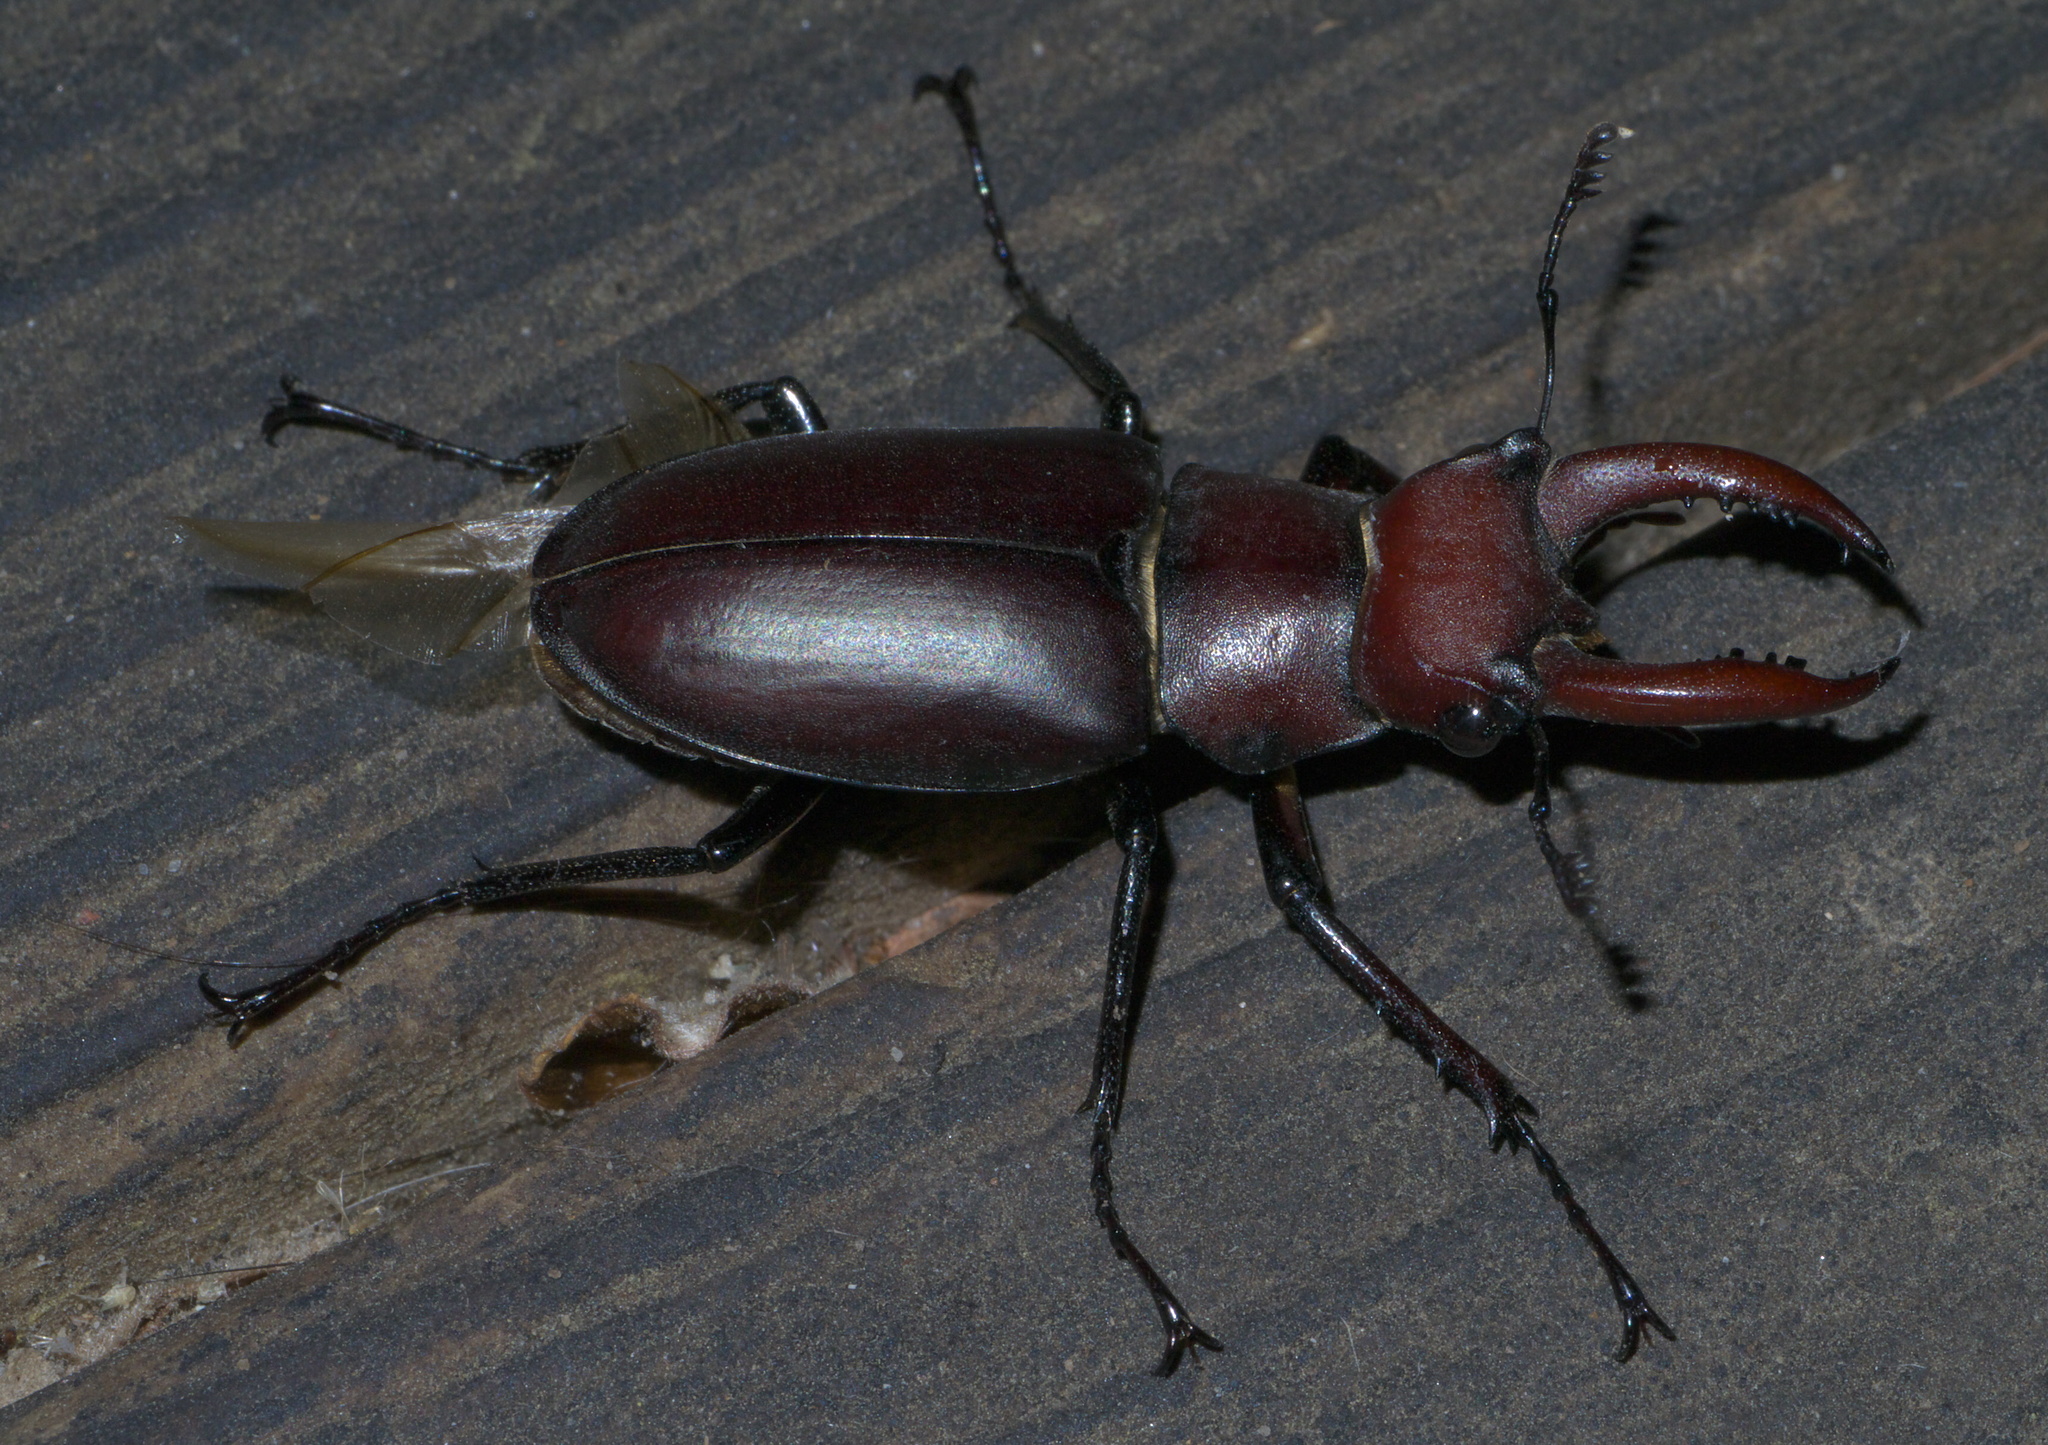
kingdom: Animalia
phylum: Arthropoda
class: Insecta
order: Coleoptera
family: Lucanidae
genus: Lucanus
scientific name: Lucanus elaphus
